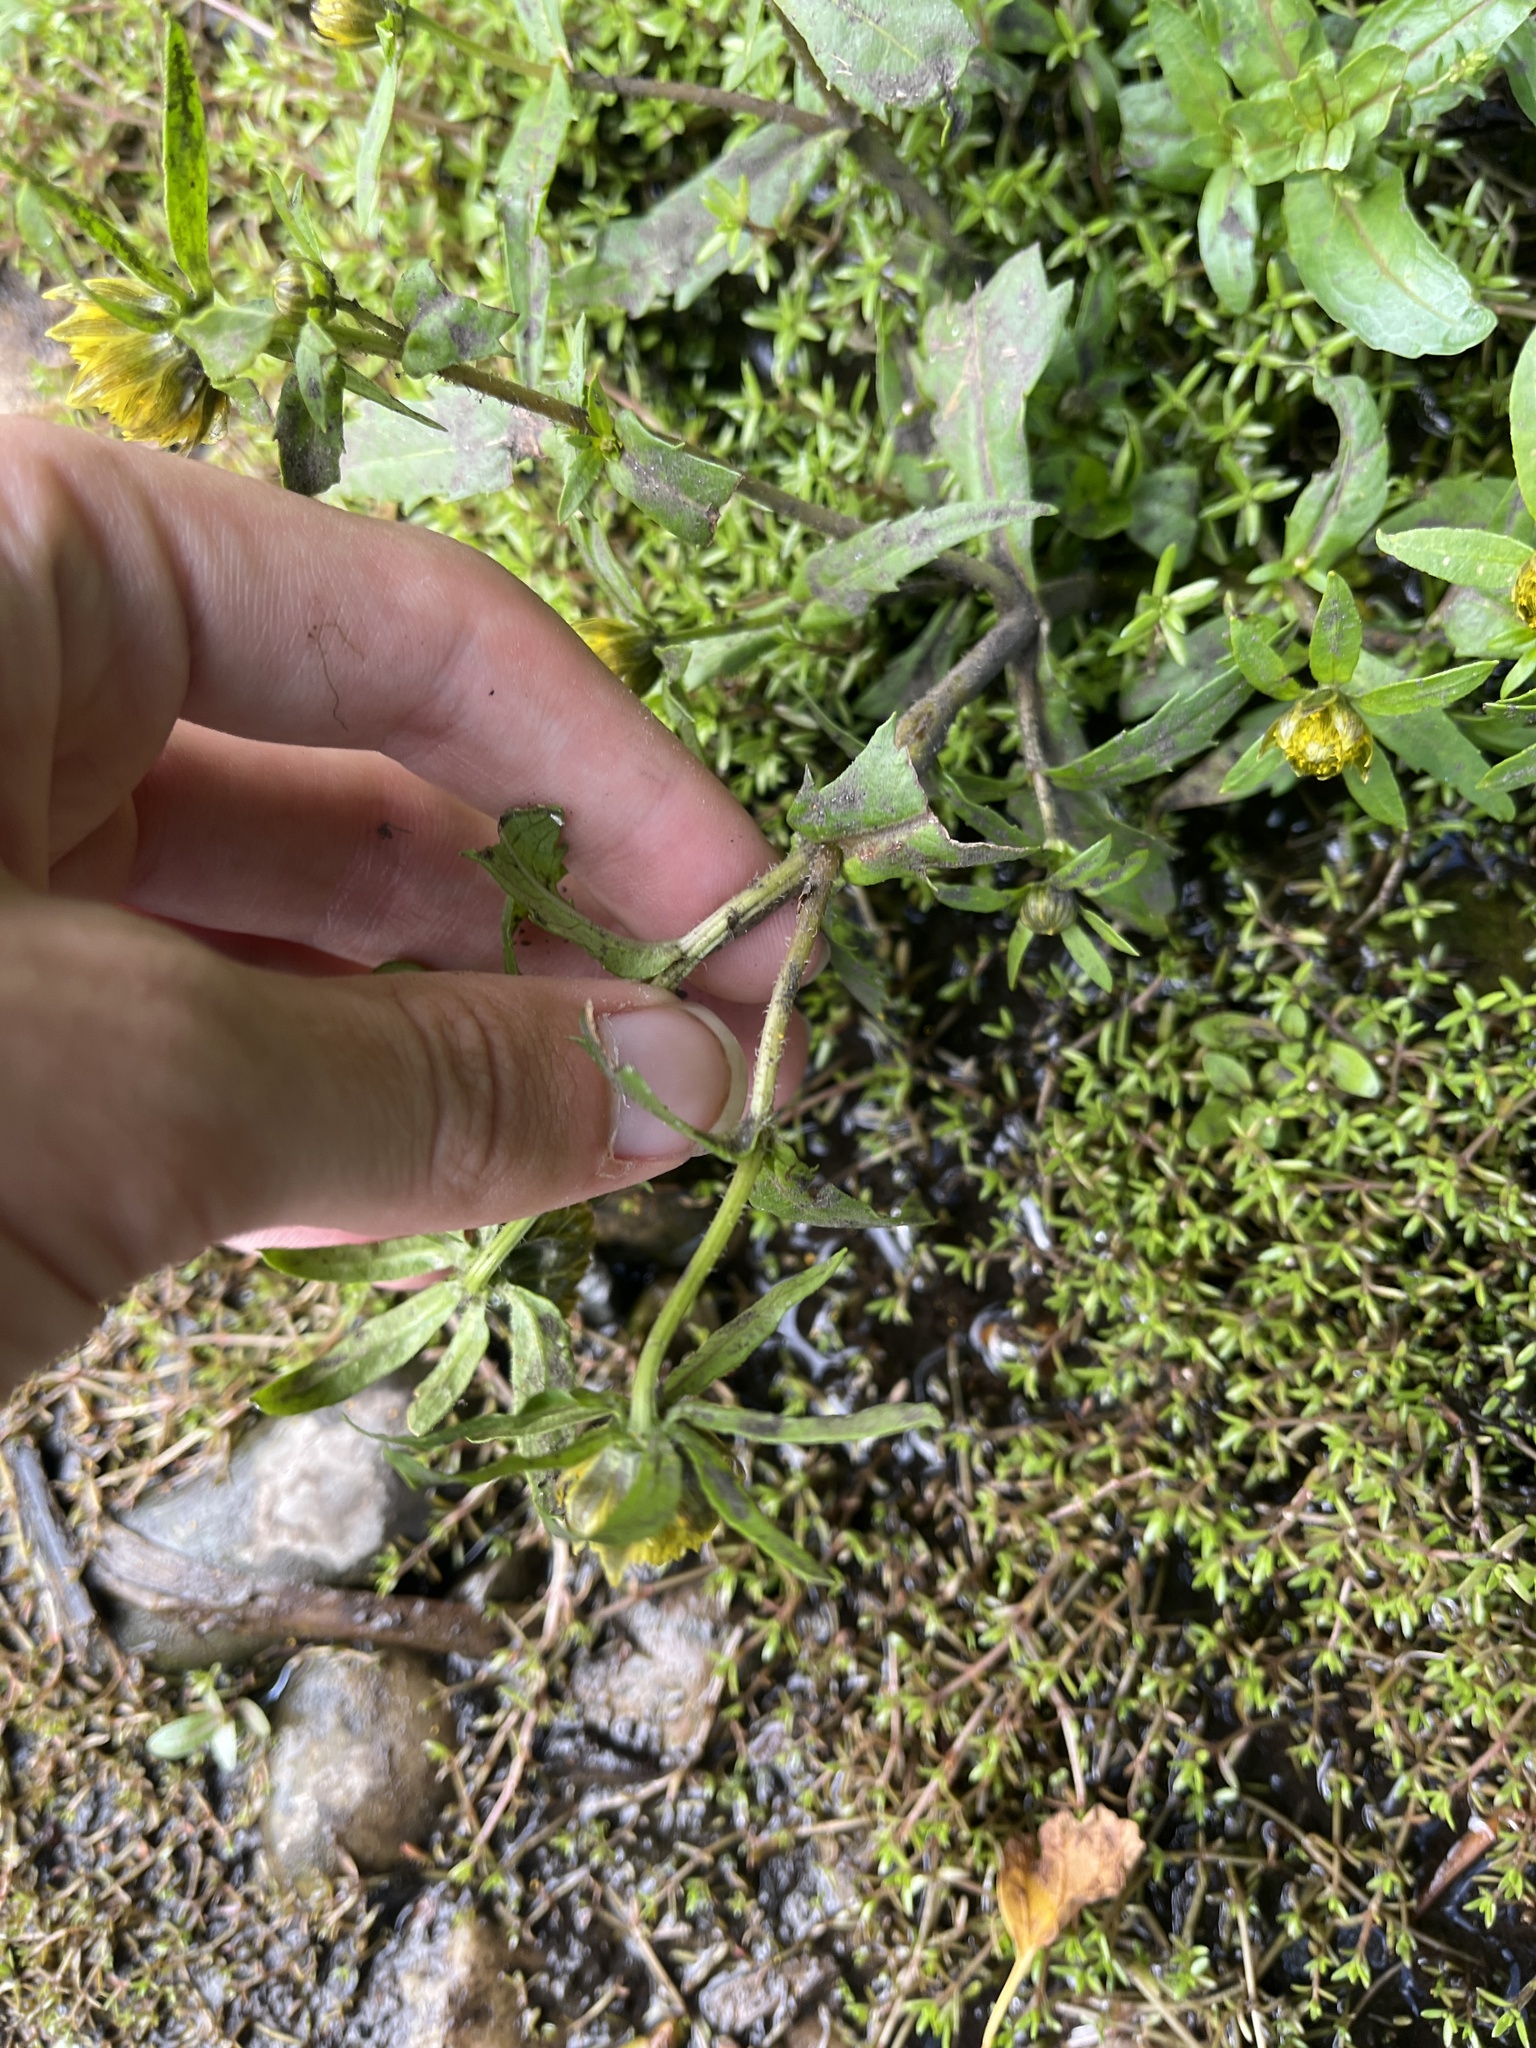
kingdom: Plantae
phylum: Tracheophyta
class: Magnoliopsida
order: Asterales
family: Asteraceae
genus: Bidens
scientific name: Bidens cernua
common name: Nodding bur-marigold
